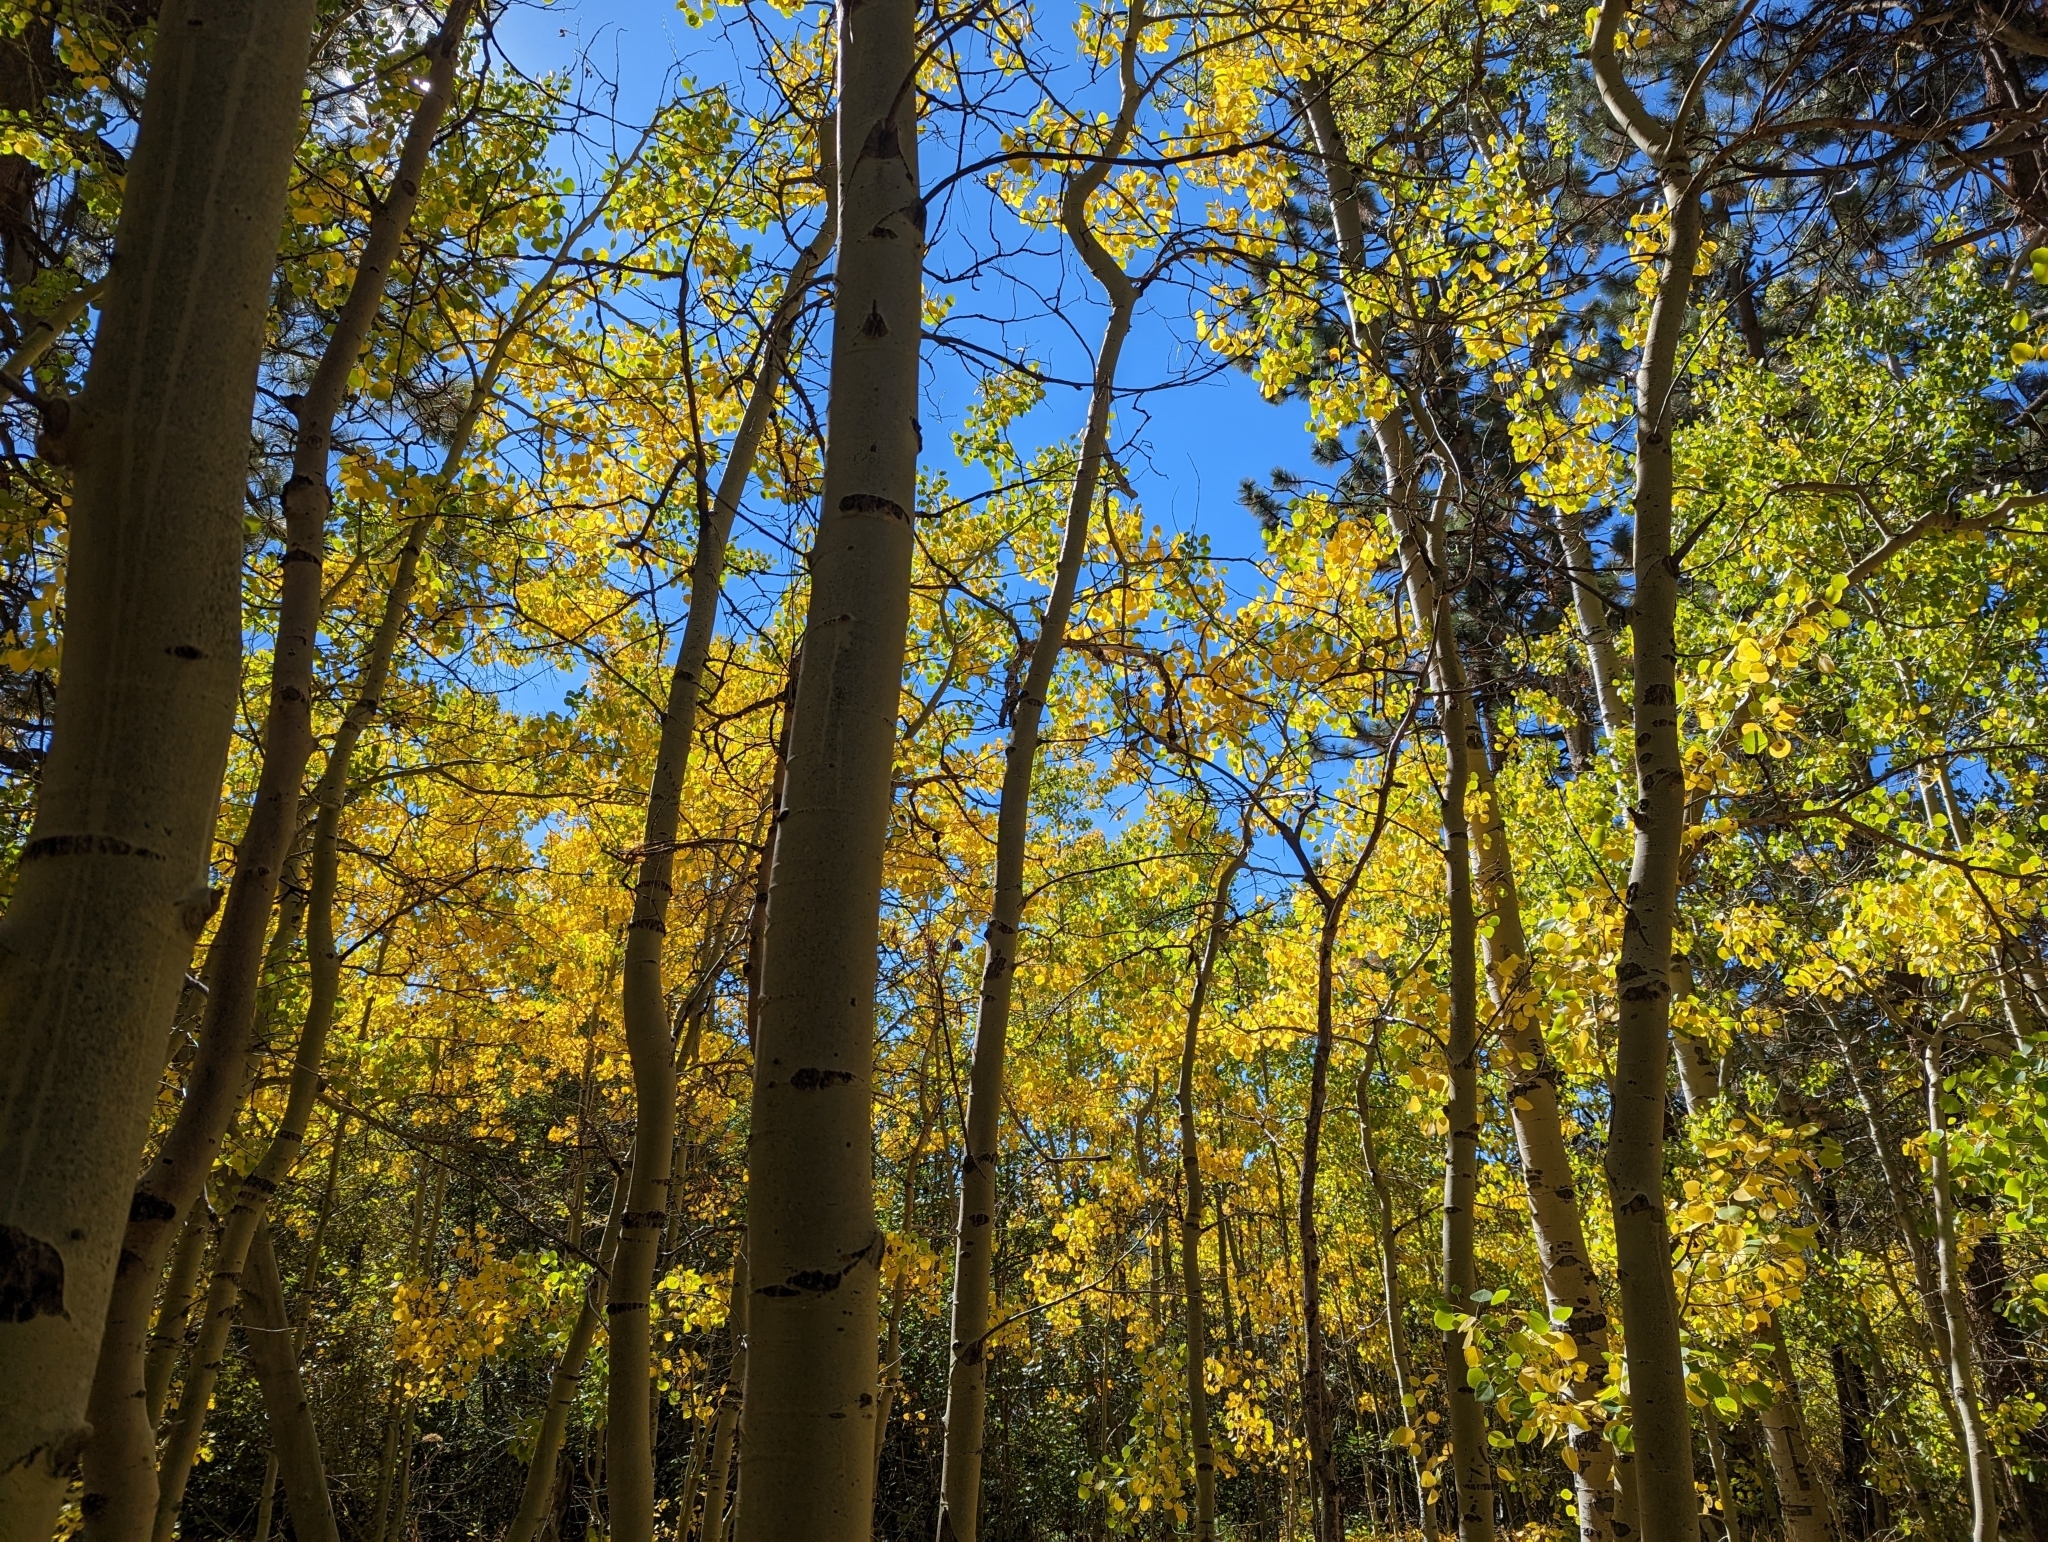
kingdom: Plantae
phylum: Tracheophyta
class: Magnoliopsida
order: Malpighiales
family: Salicaceae
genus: Populus
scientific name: Populus tremuloides
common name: Quaking aspen
